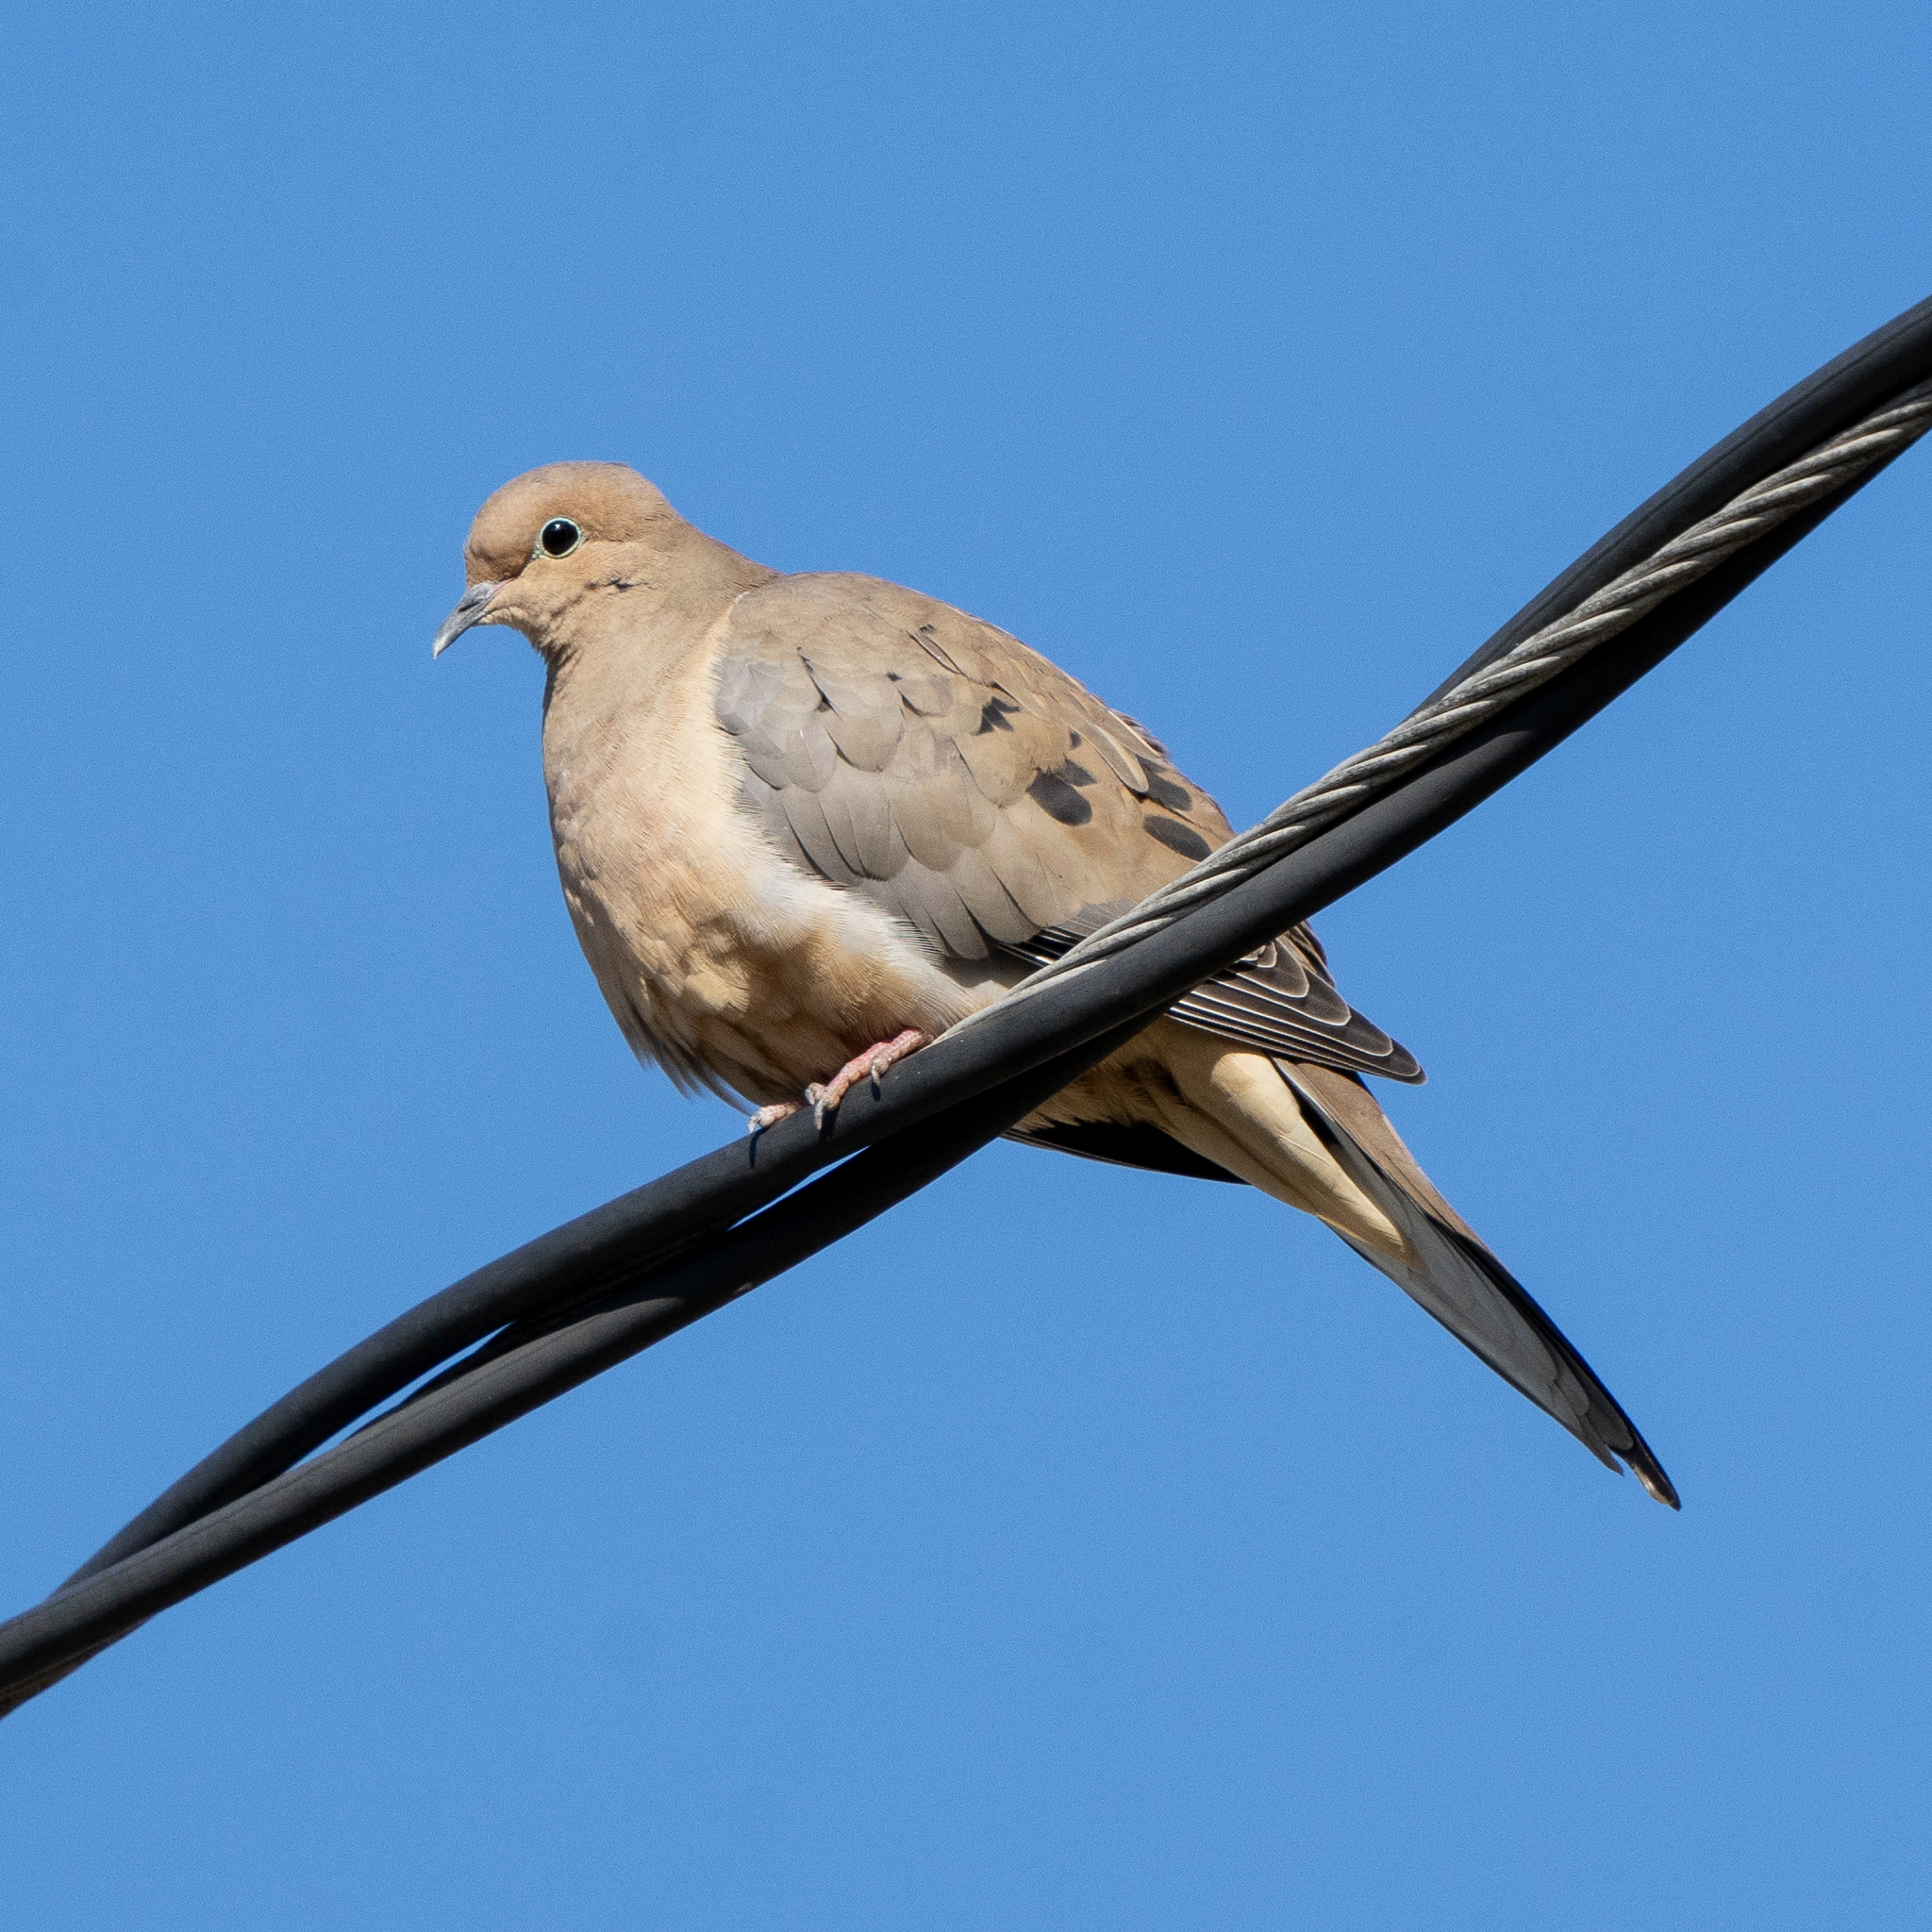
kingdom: Animalia
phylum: Chordata
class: Aves
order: Columbiformes
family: Columbidae
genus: Zenaida
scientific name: Zenaida macroura
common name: Mourning dove
